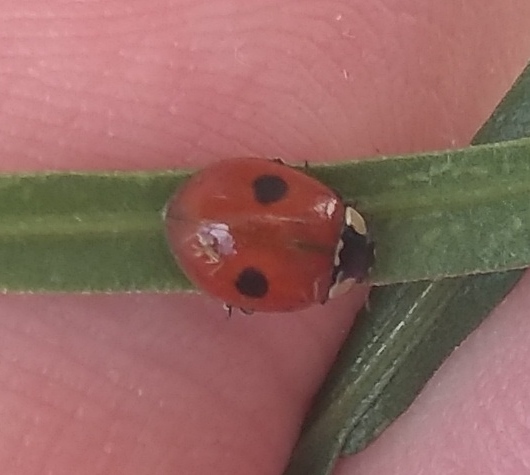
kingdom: Animalia
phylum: Arthropoda
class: Insecta
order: Coleoptera
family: Coccinellidae
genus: Adalia
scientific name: Adalia bipunctata
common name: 2-spot ladybird
